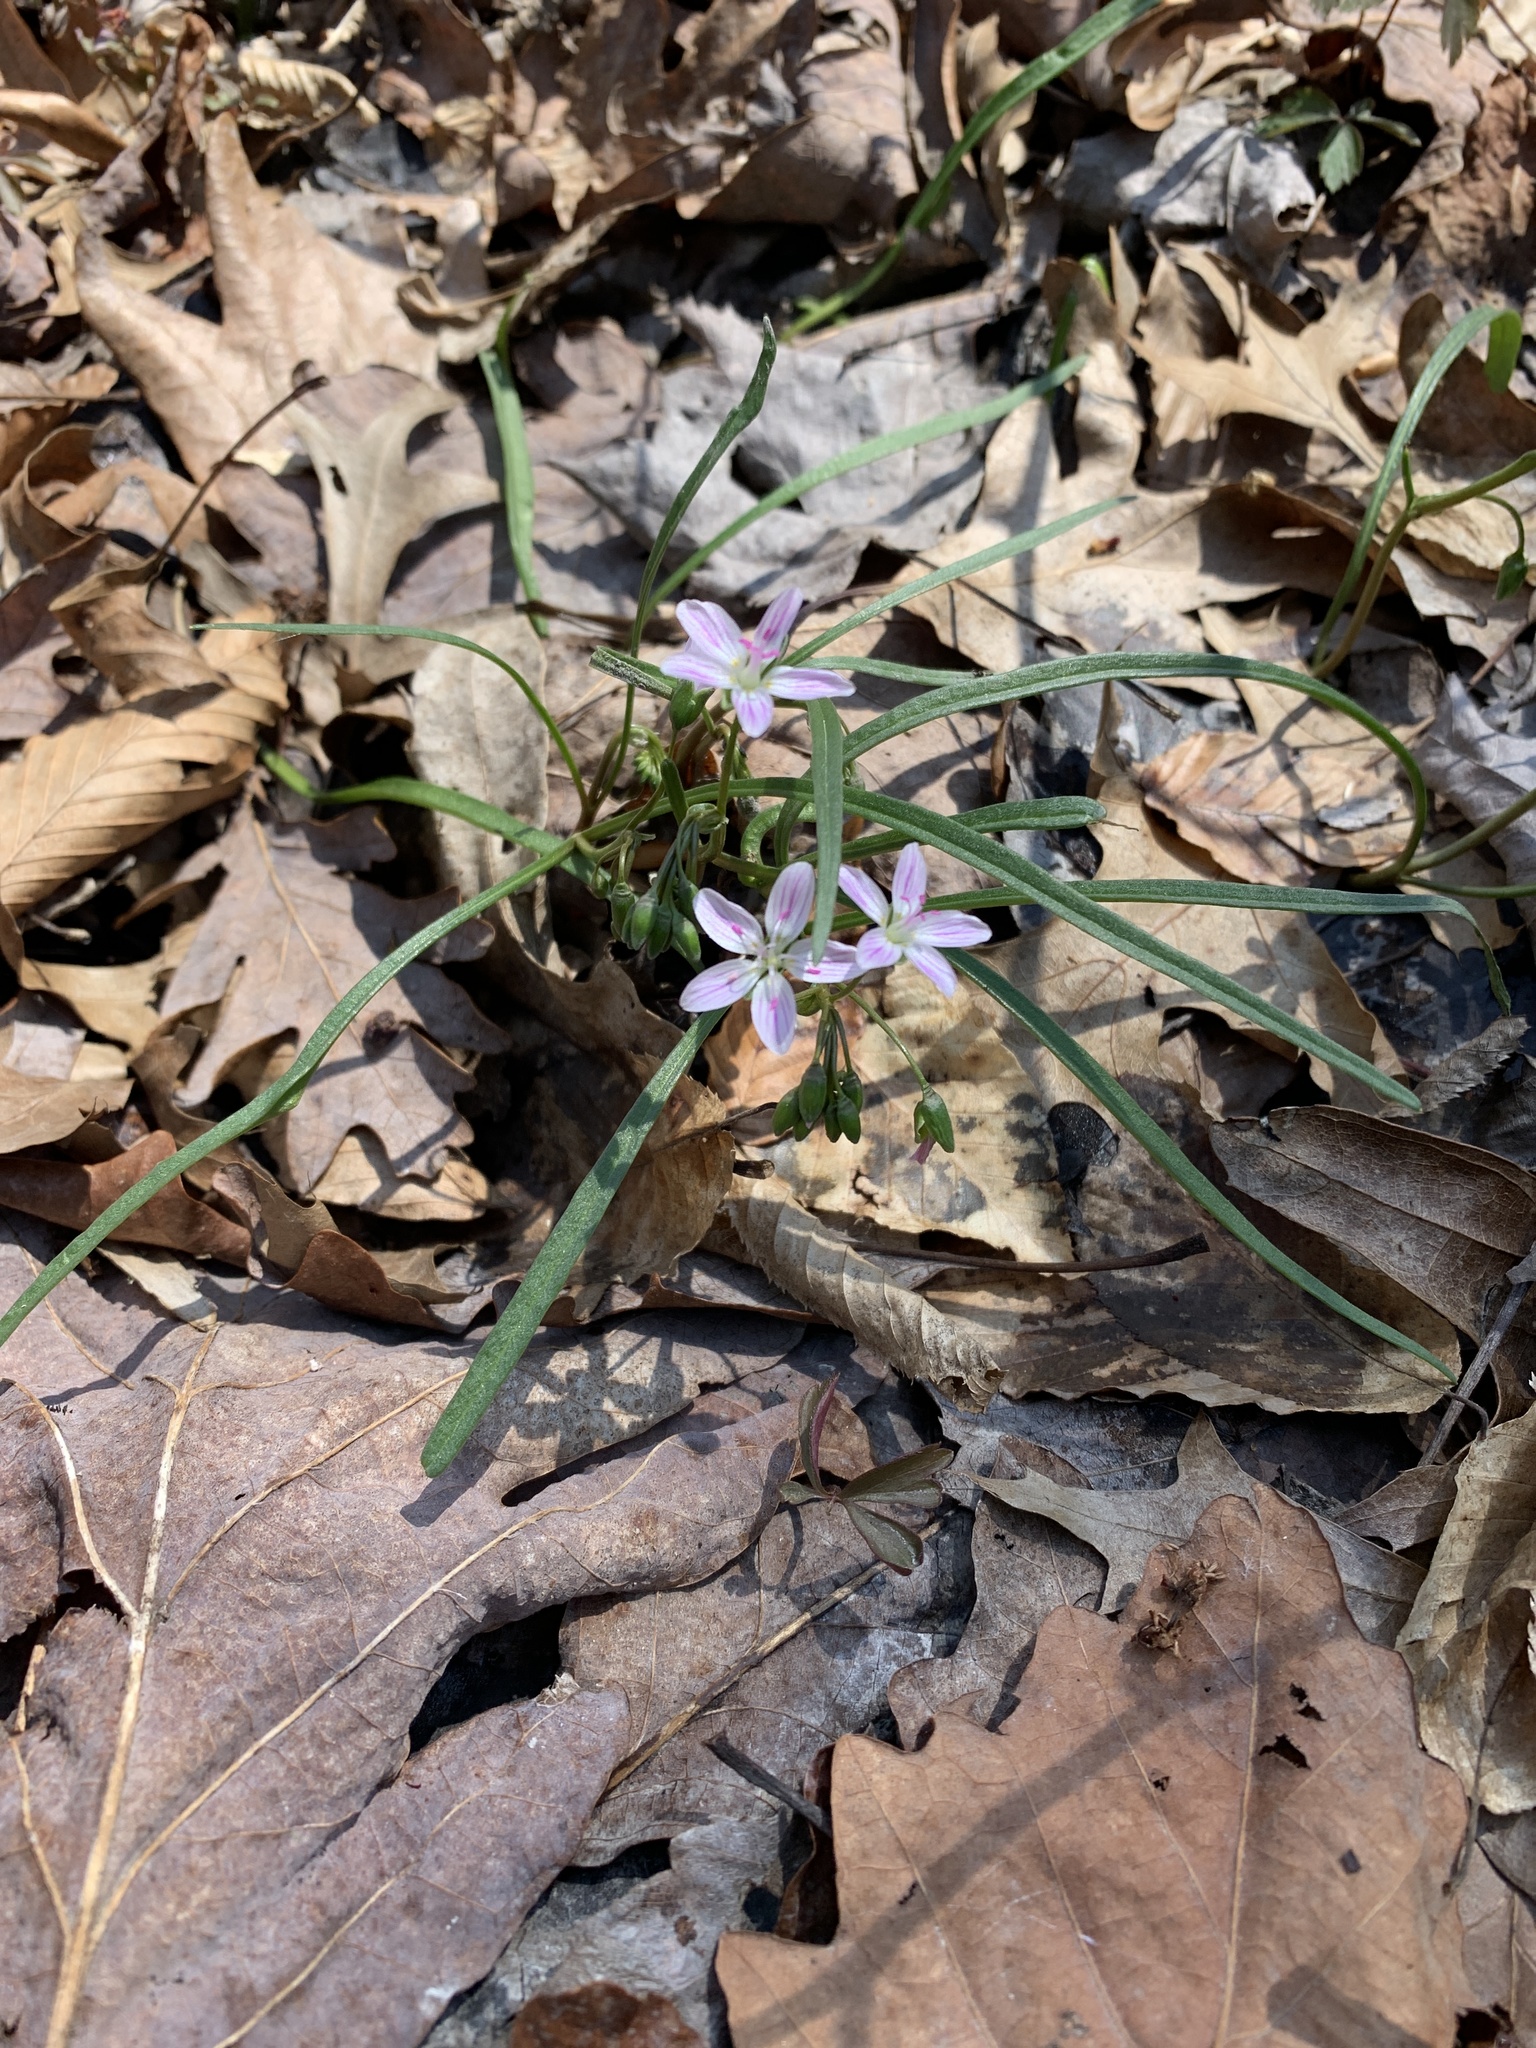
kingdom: Plantae
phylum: Tracheophyta
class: Magnoliopsida
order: Caryophyllales
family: Montiaceae
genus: Claytonia
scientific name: Claytonia virginica
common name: Virginia springbeauty
